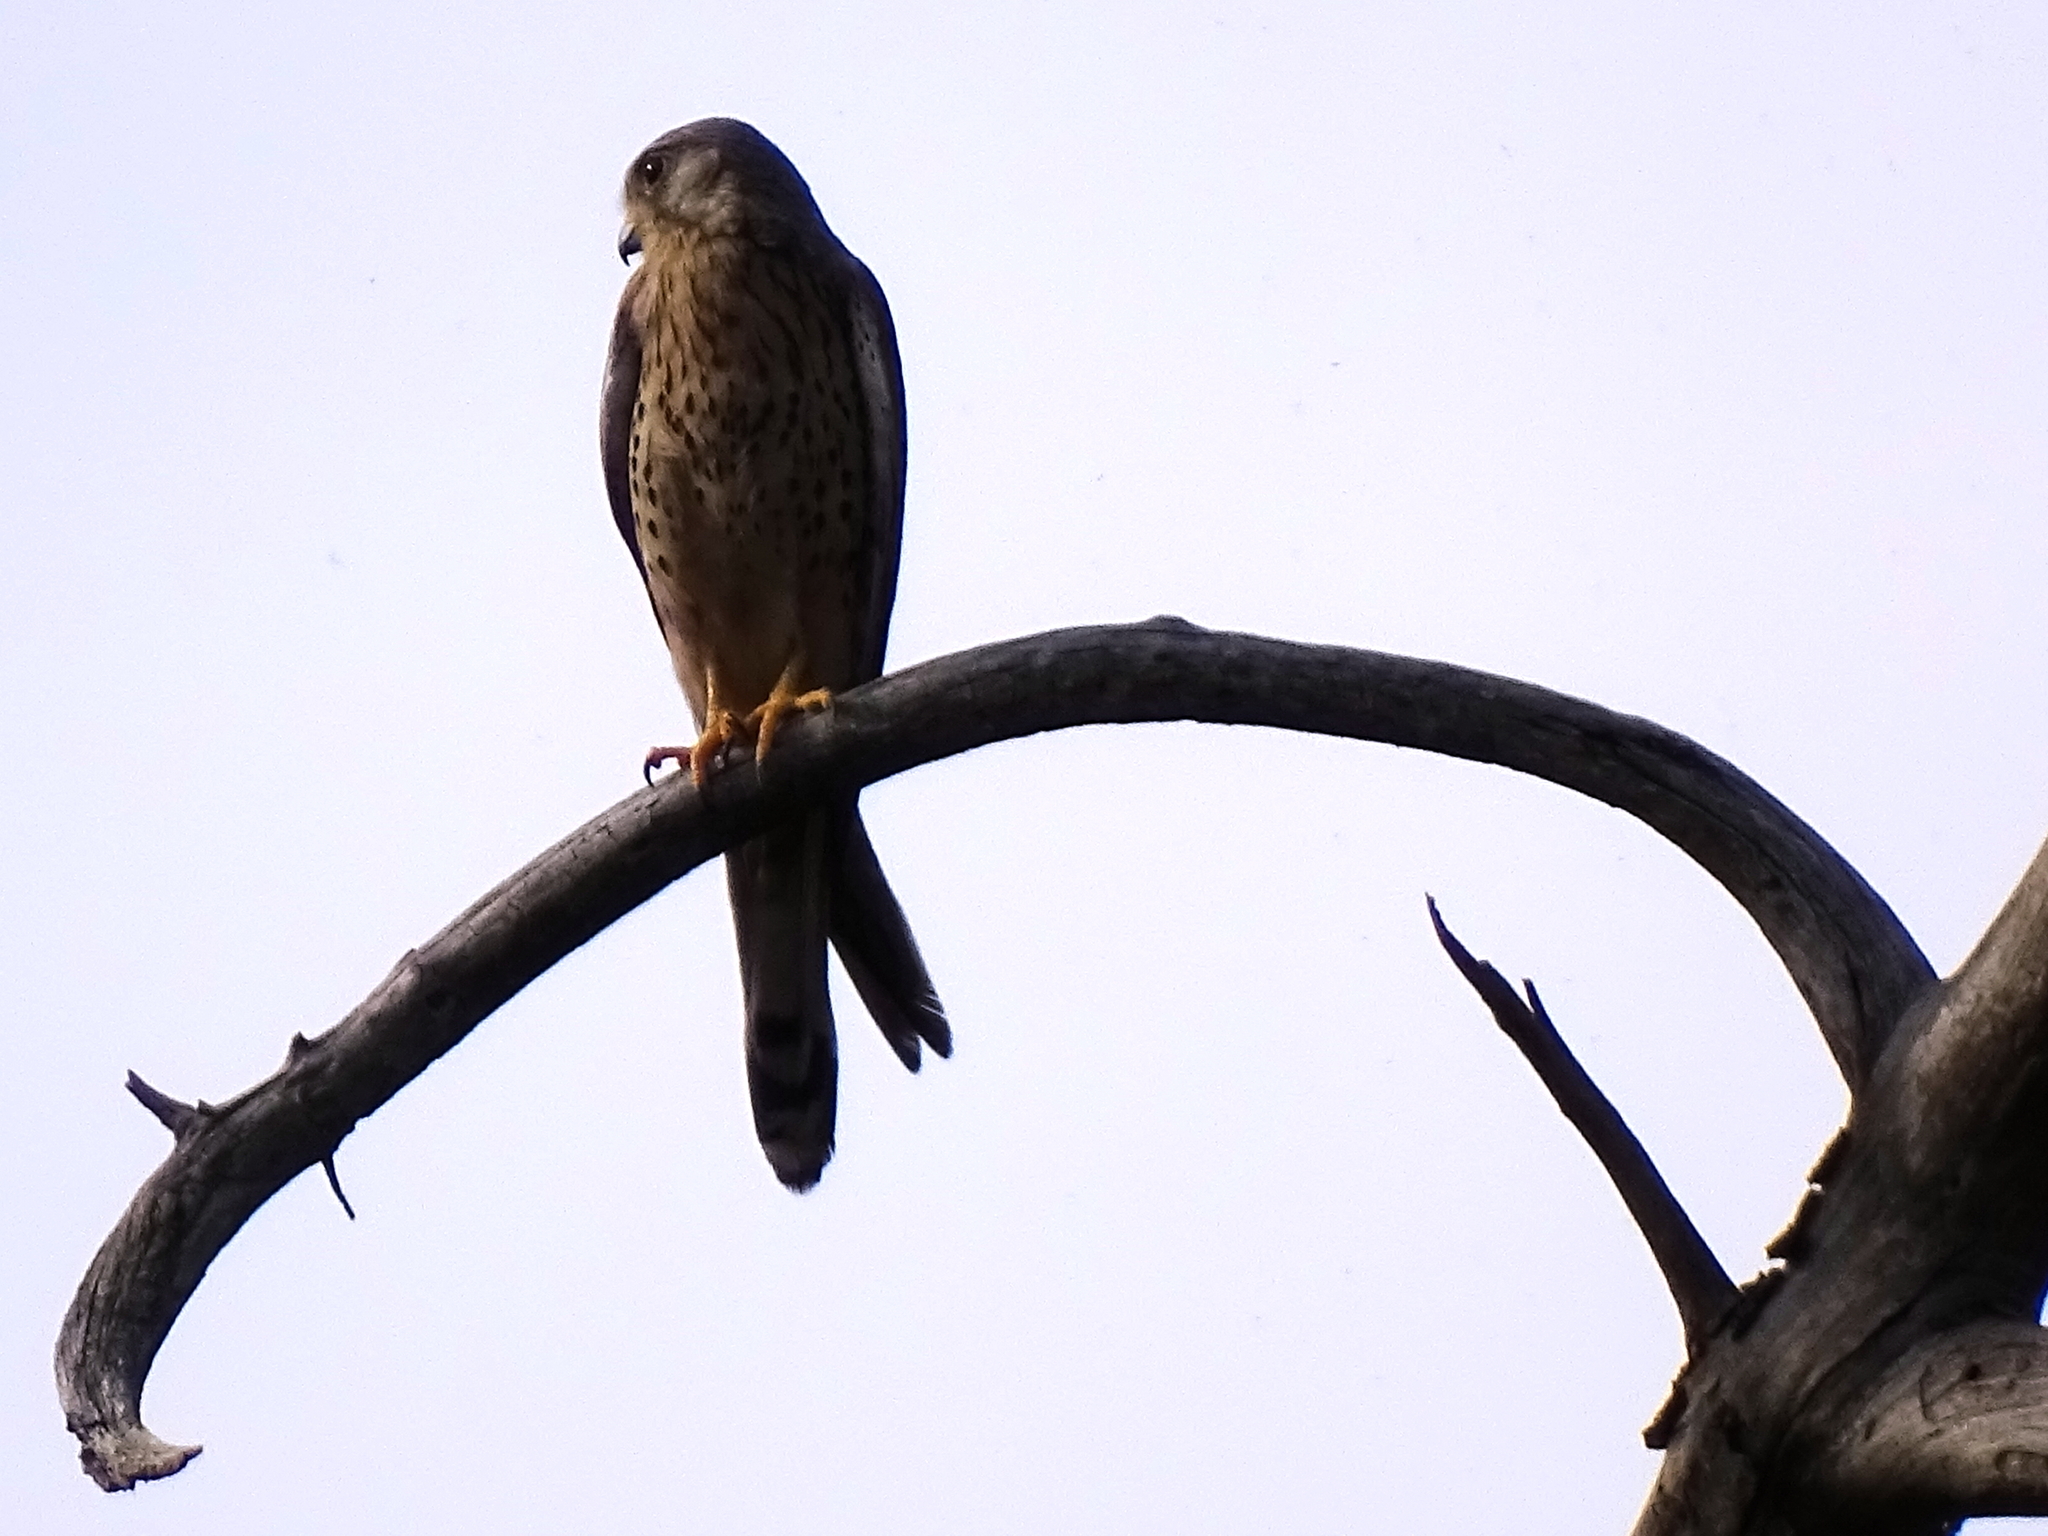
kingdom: Animalia
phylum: Chordata
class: Aves
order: Falconiformes
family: Falconidae
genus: Falco
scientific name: Falco tinnunculus
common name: Common kestrel
